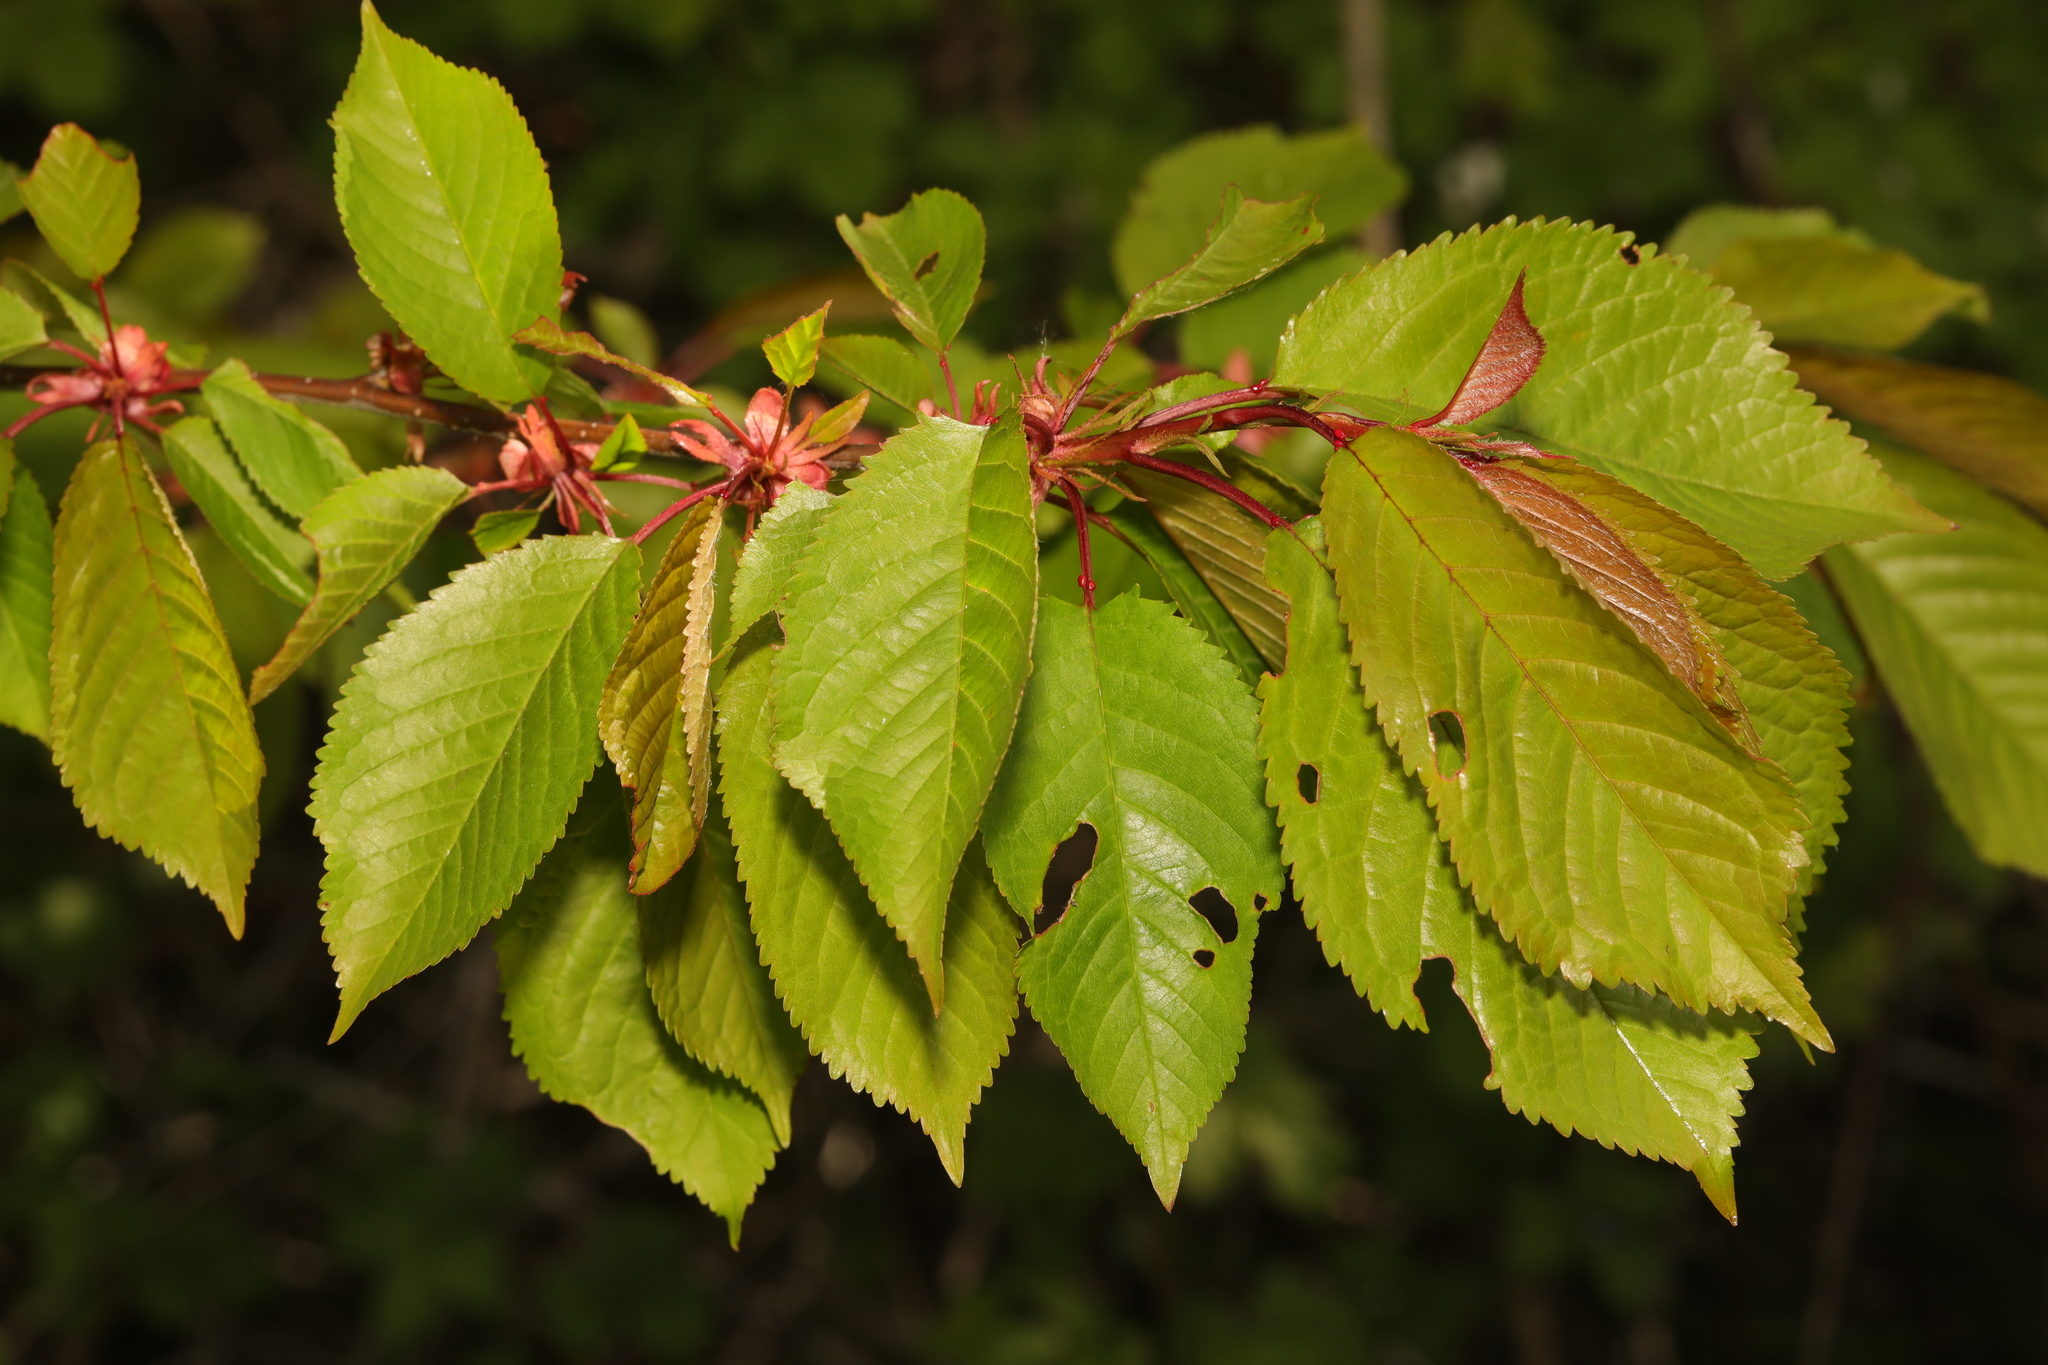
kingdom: Plantae
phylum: Tracheophyta
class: Magnoliopsida
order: Rosales
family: Rosaceae
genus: Prunus
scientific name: Prunus avium
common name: Sweet cherry
